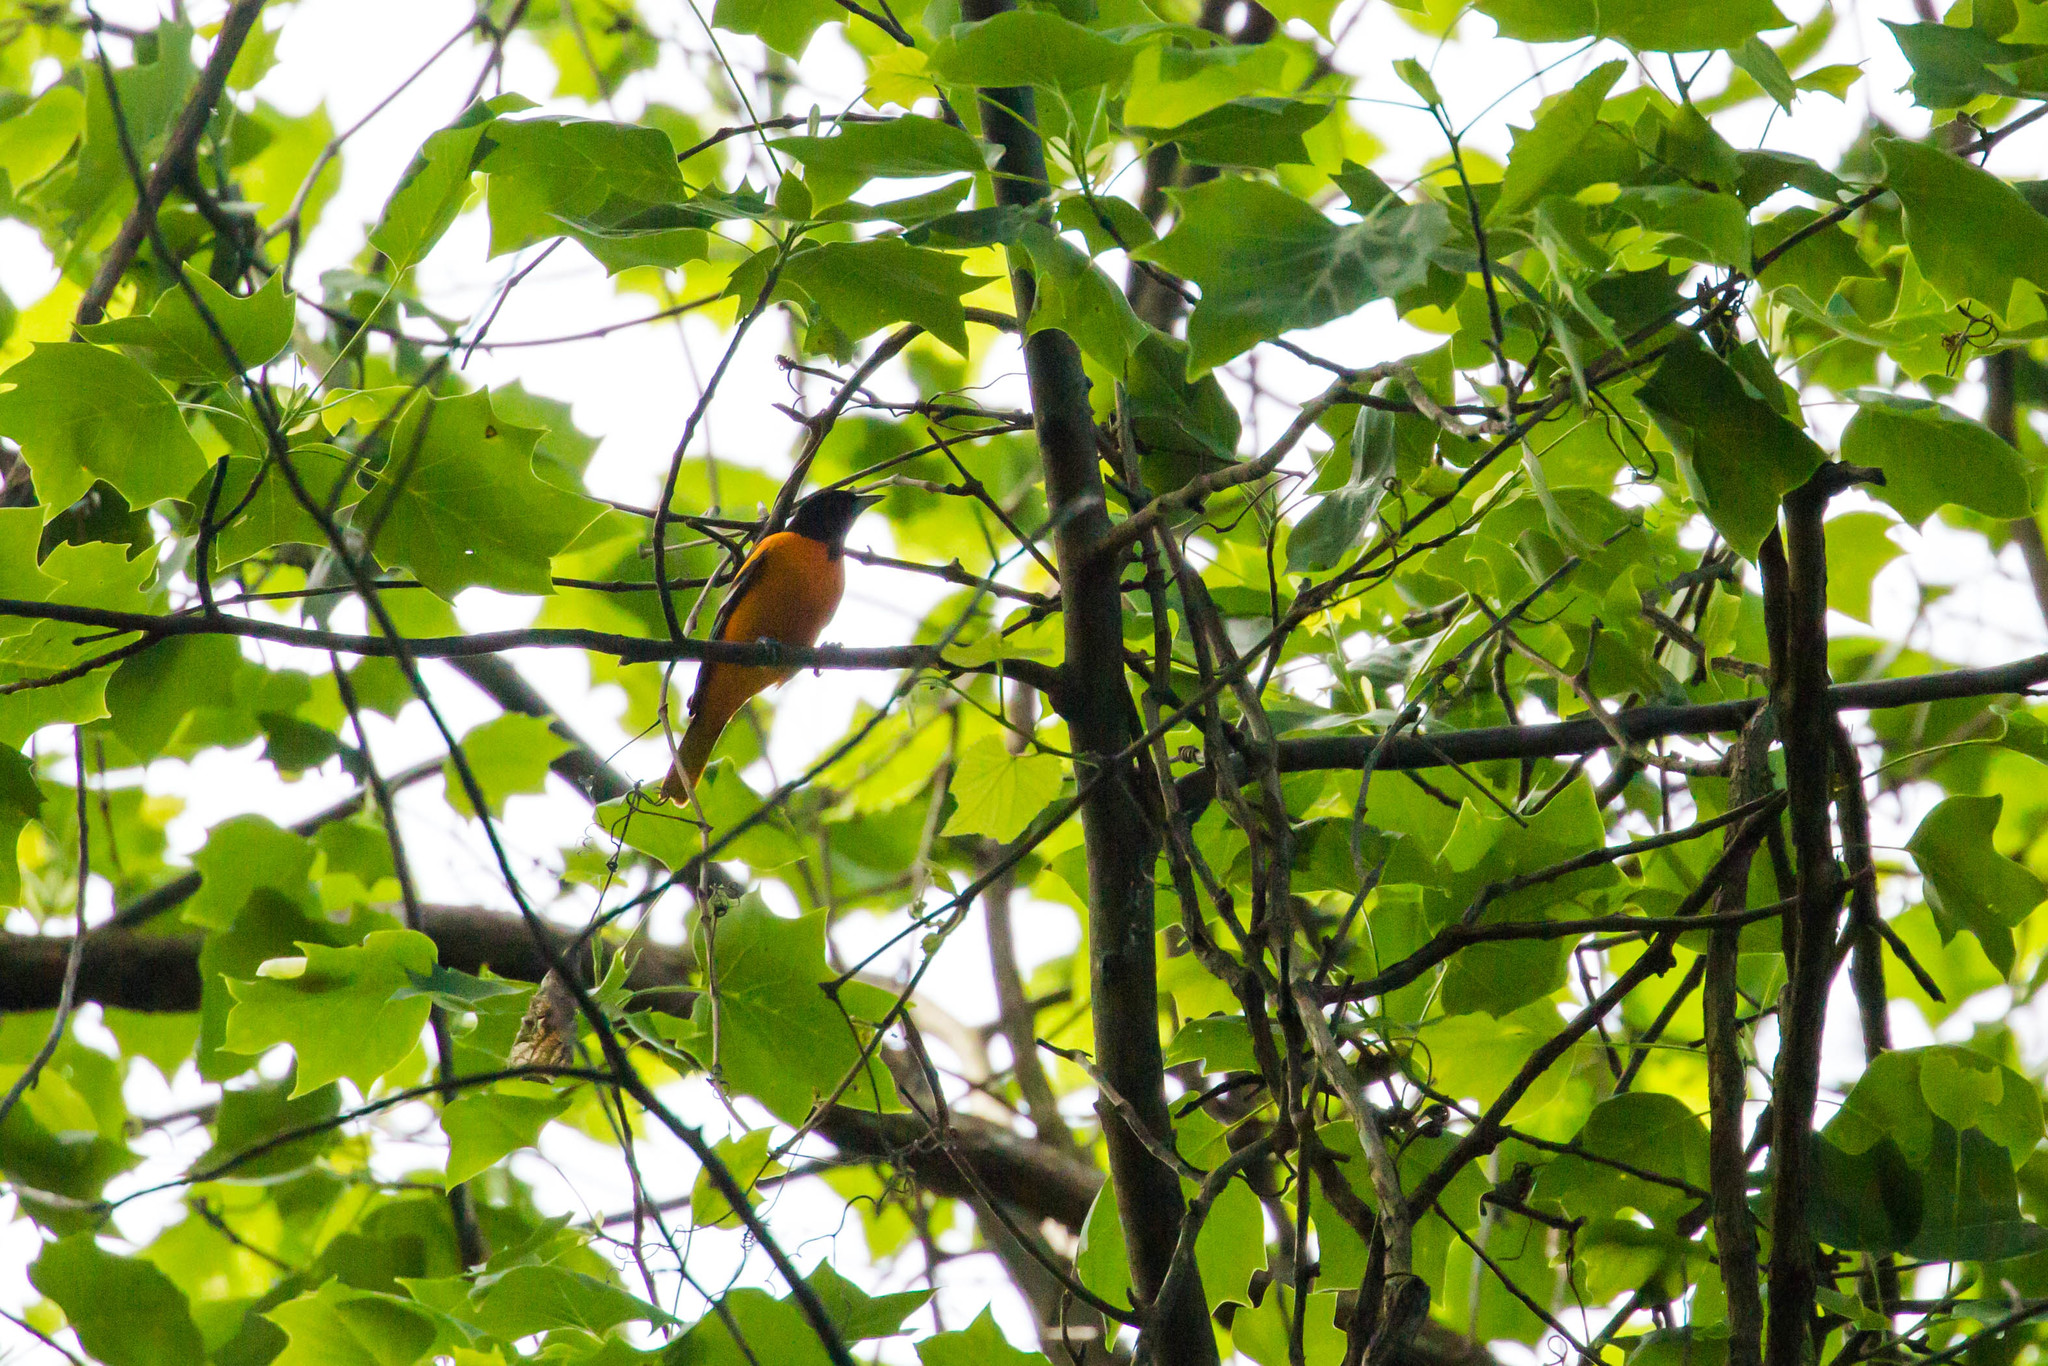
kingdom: Animalia
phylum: Chordata
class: Aves
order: Passeriformes
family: Icteridae
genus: Icterus
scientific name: Icterus galbula
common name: Baltimore oriole
